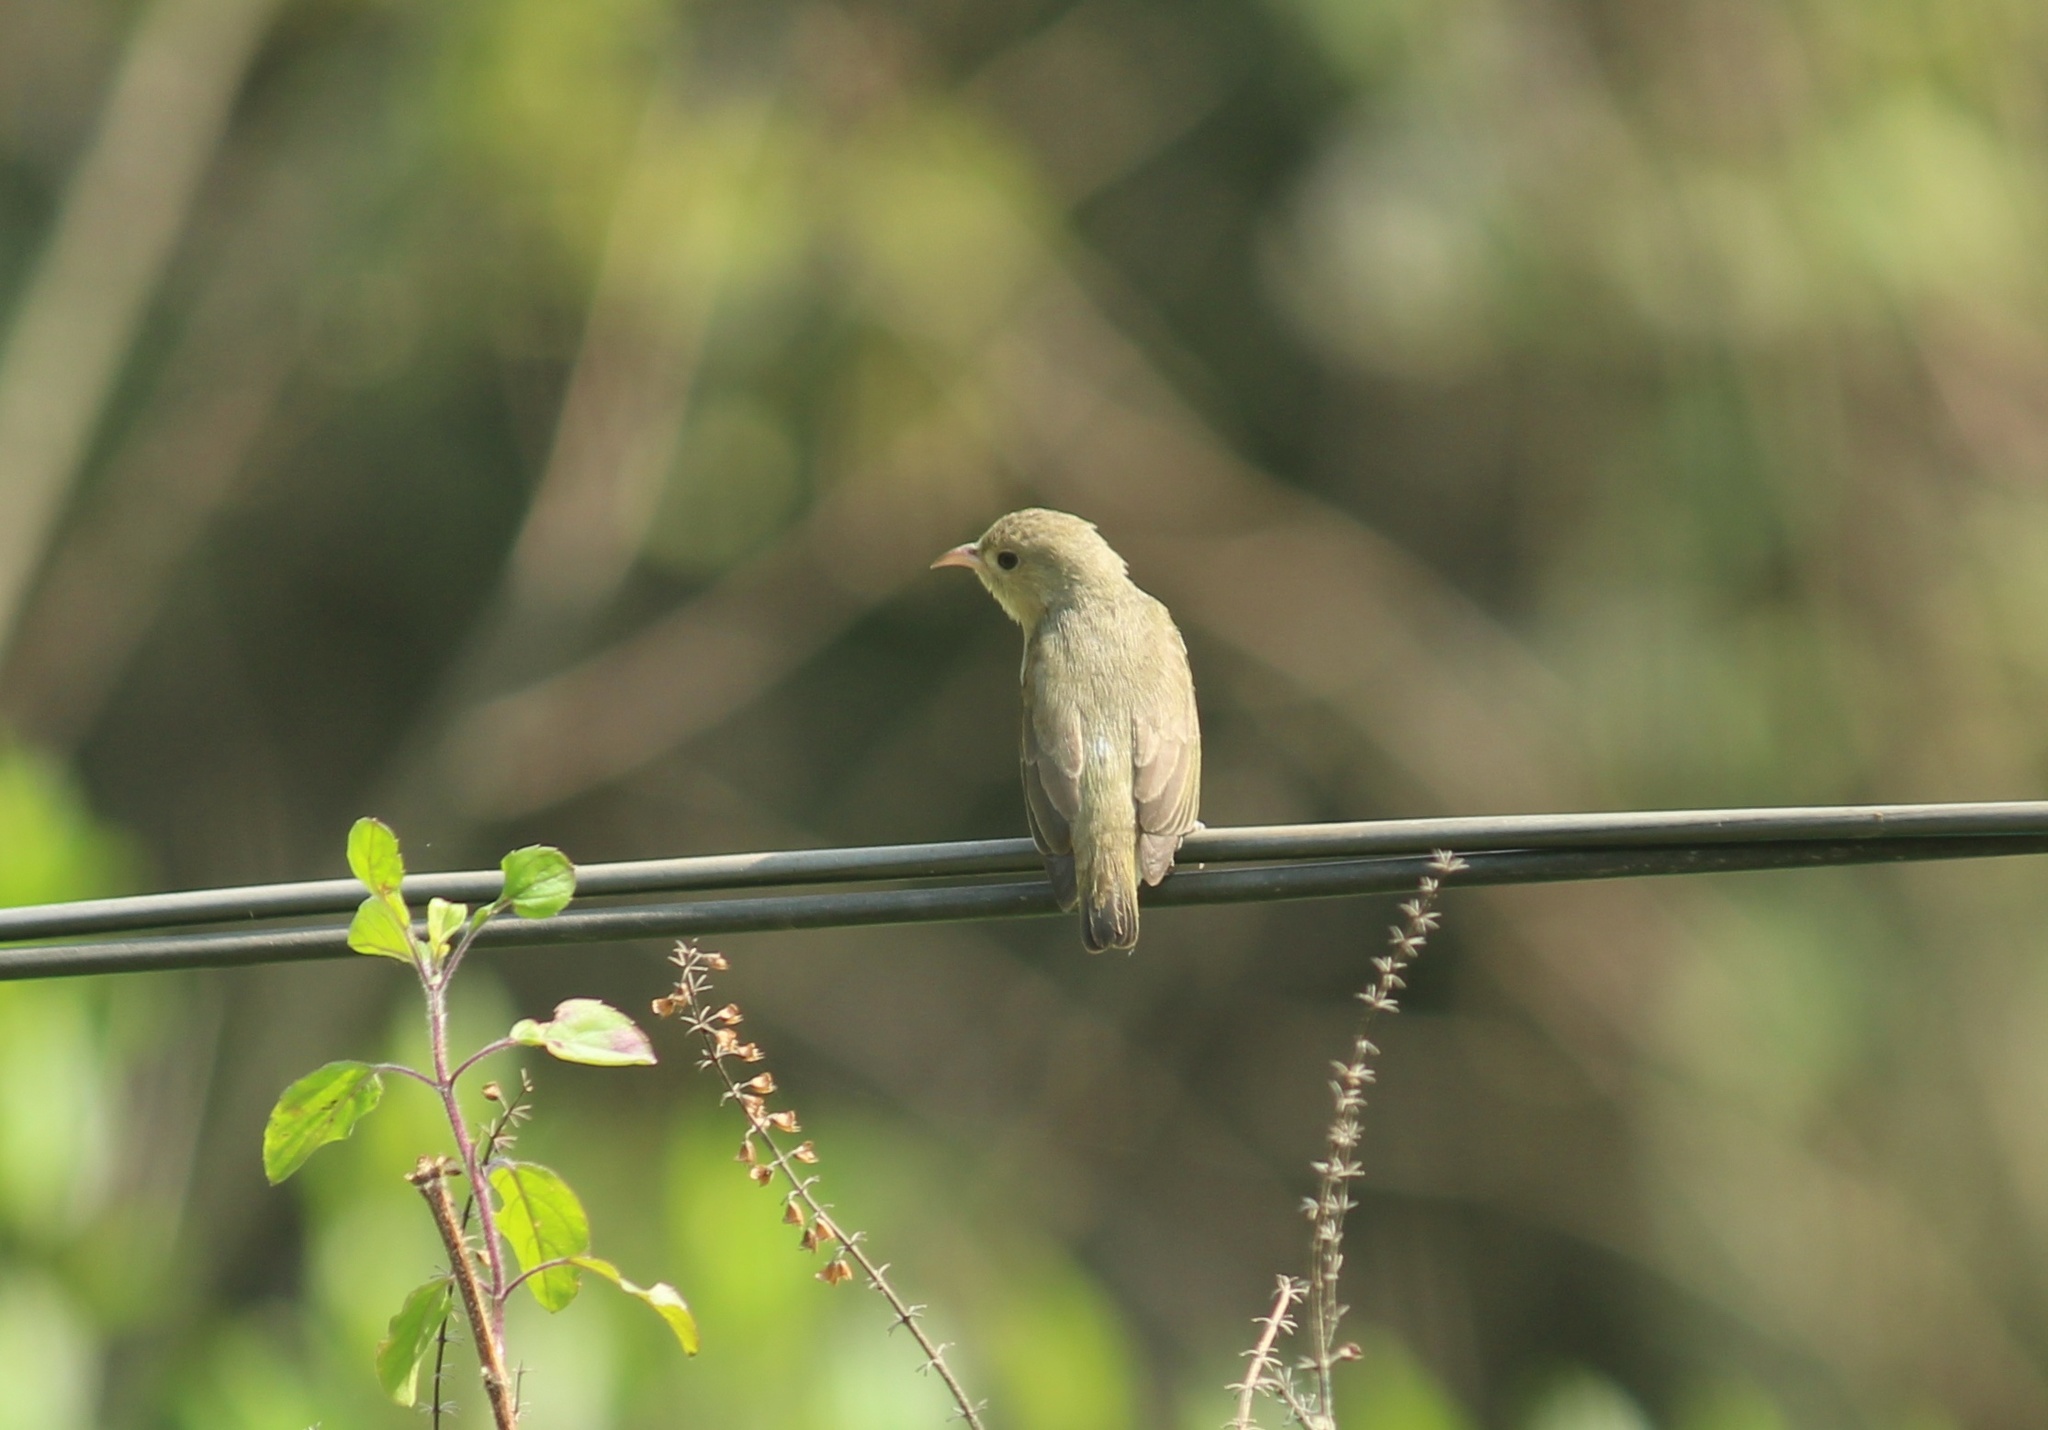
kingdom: Animalia
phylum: Chordata
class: Aves
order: Passeriformes
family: Dicaeidae
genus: Dicaeum
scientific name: Dicaeum erythrorhynchos
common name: Pale-billed flowerpecker
